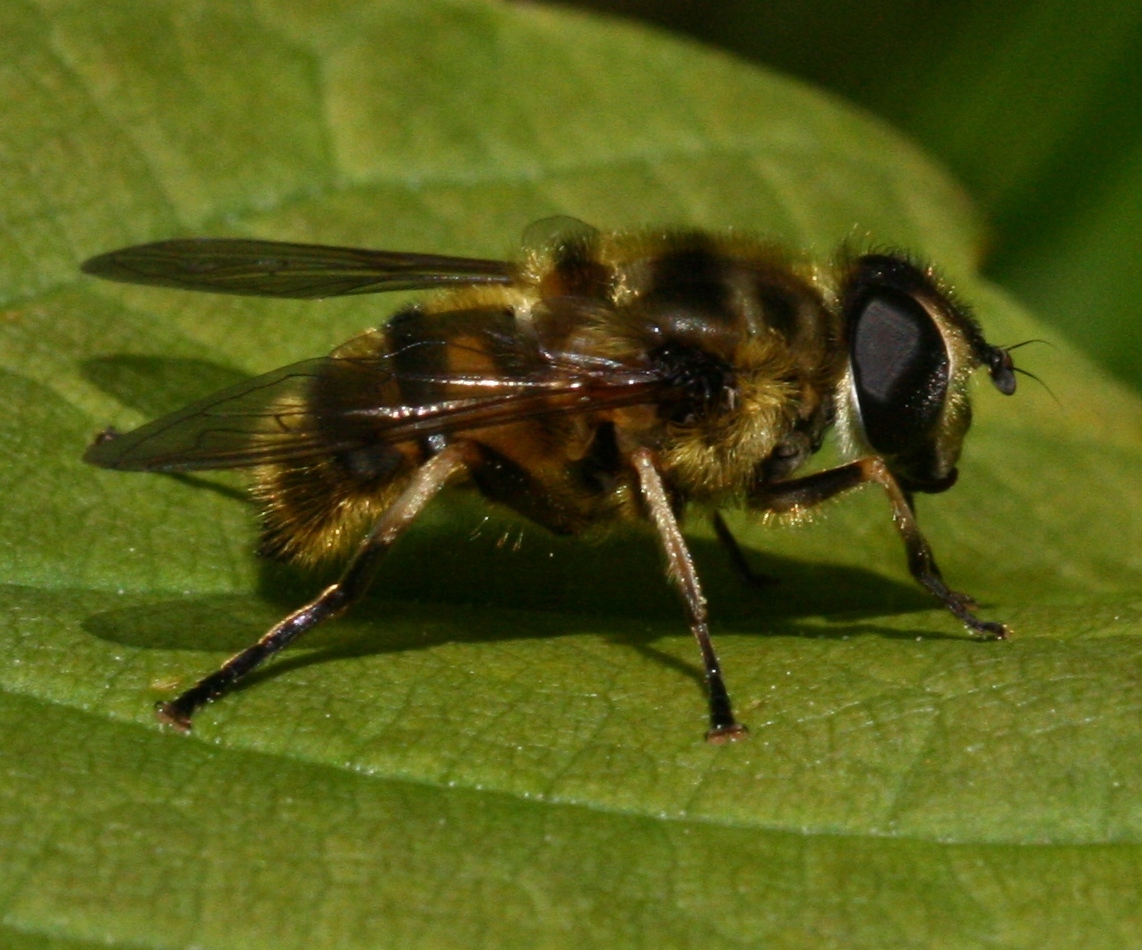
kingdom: Animalia
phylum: Arthropoda
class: Insecta
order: Diptera
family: Syrphidae
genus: Myathropa
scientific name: Myathropa florea
